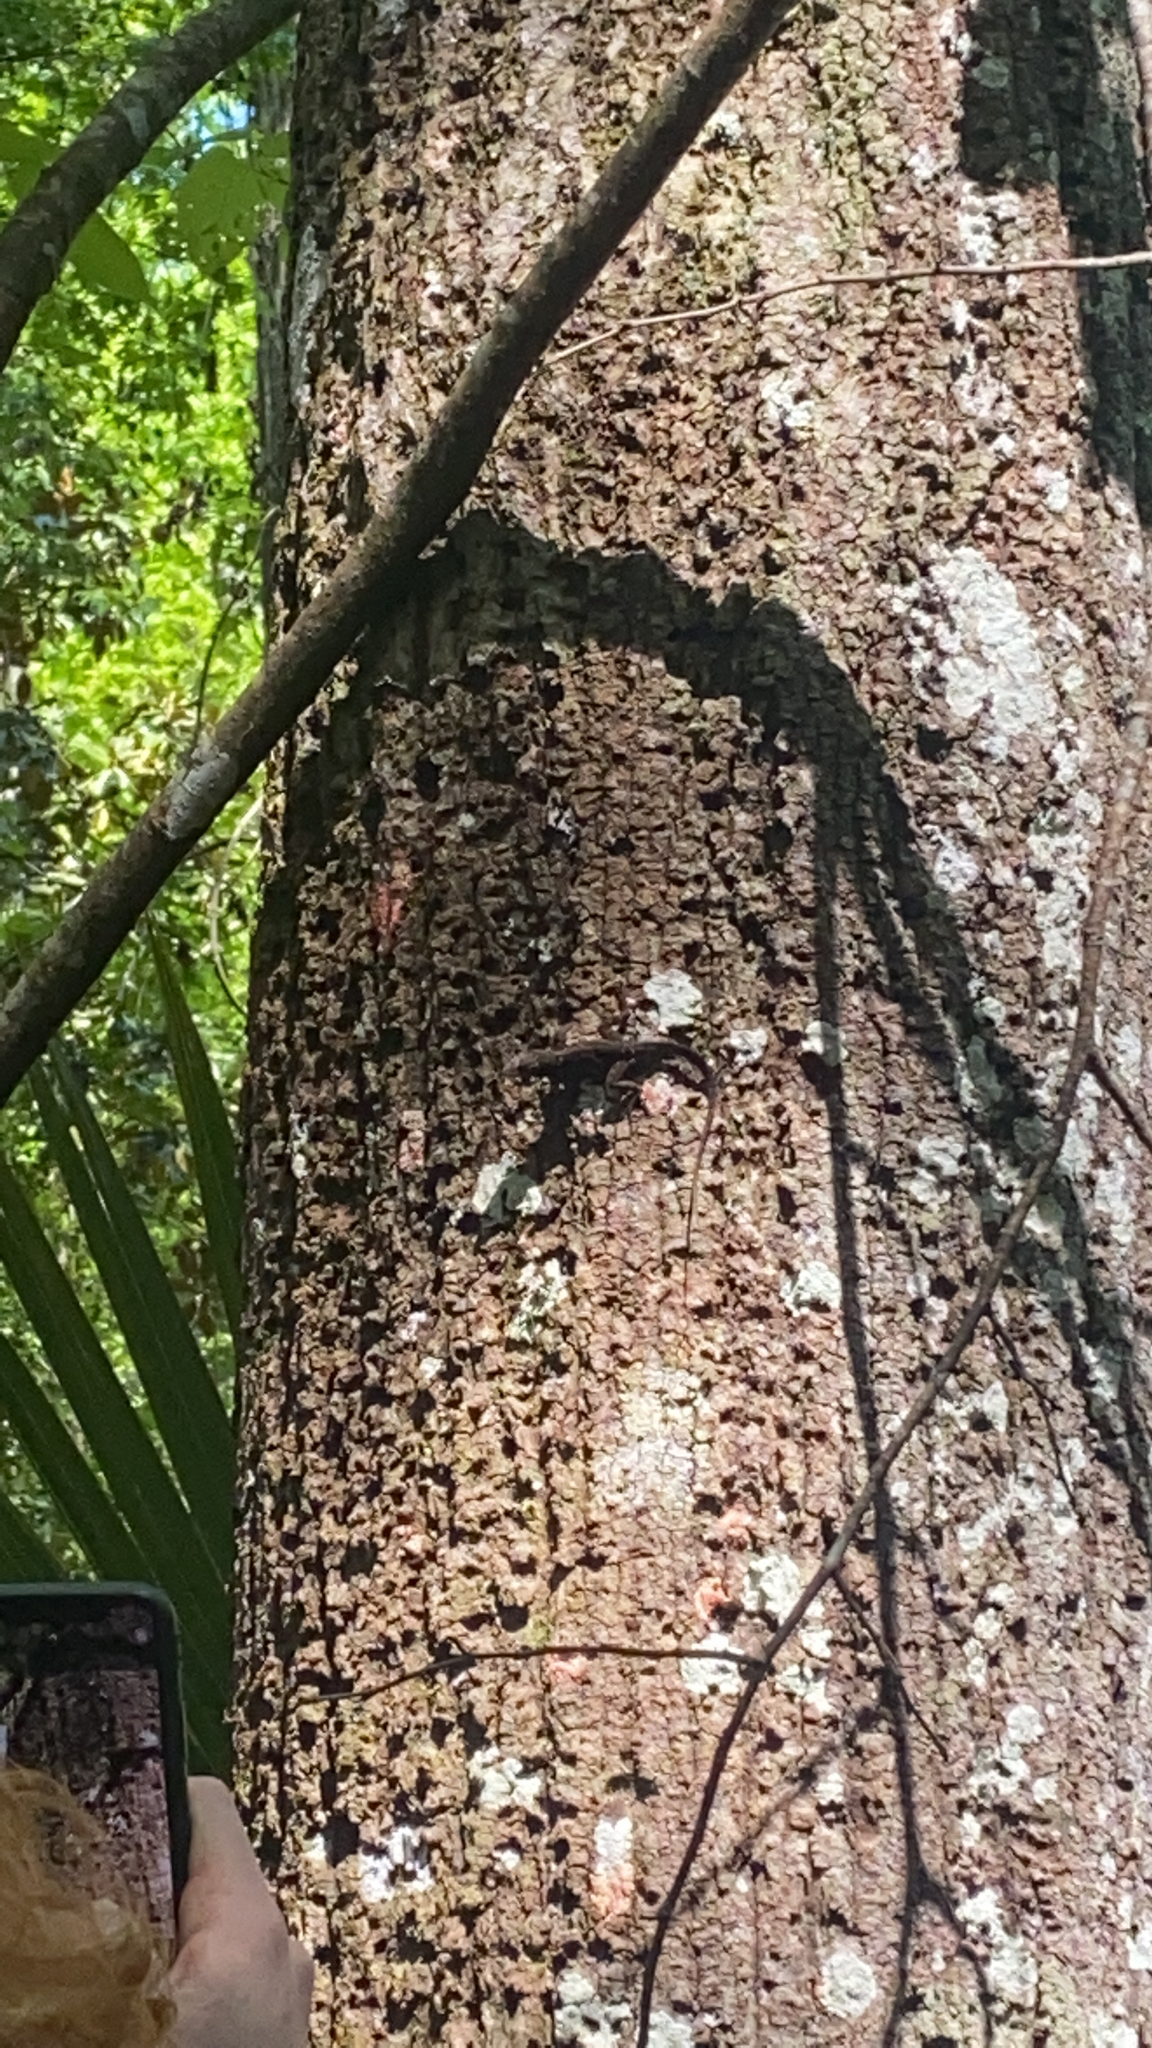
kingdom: Animalia
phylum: Chordata
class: Squamata
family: Dactyloidae
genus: Anolis
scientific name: Anolis sagrei
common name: Brown anole
